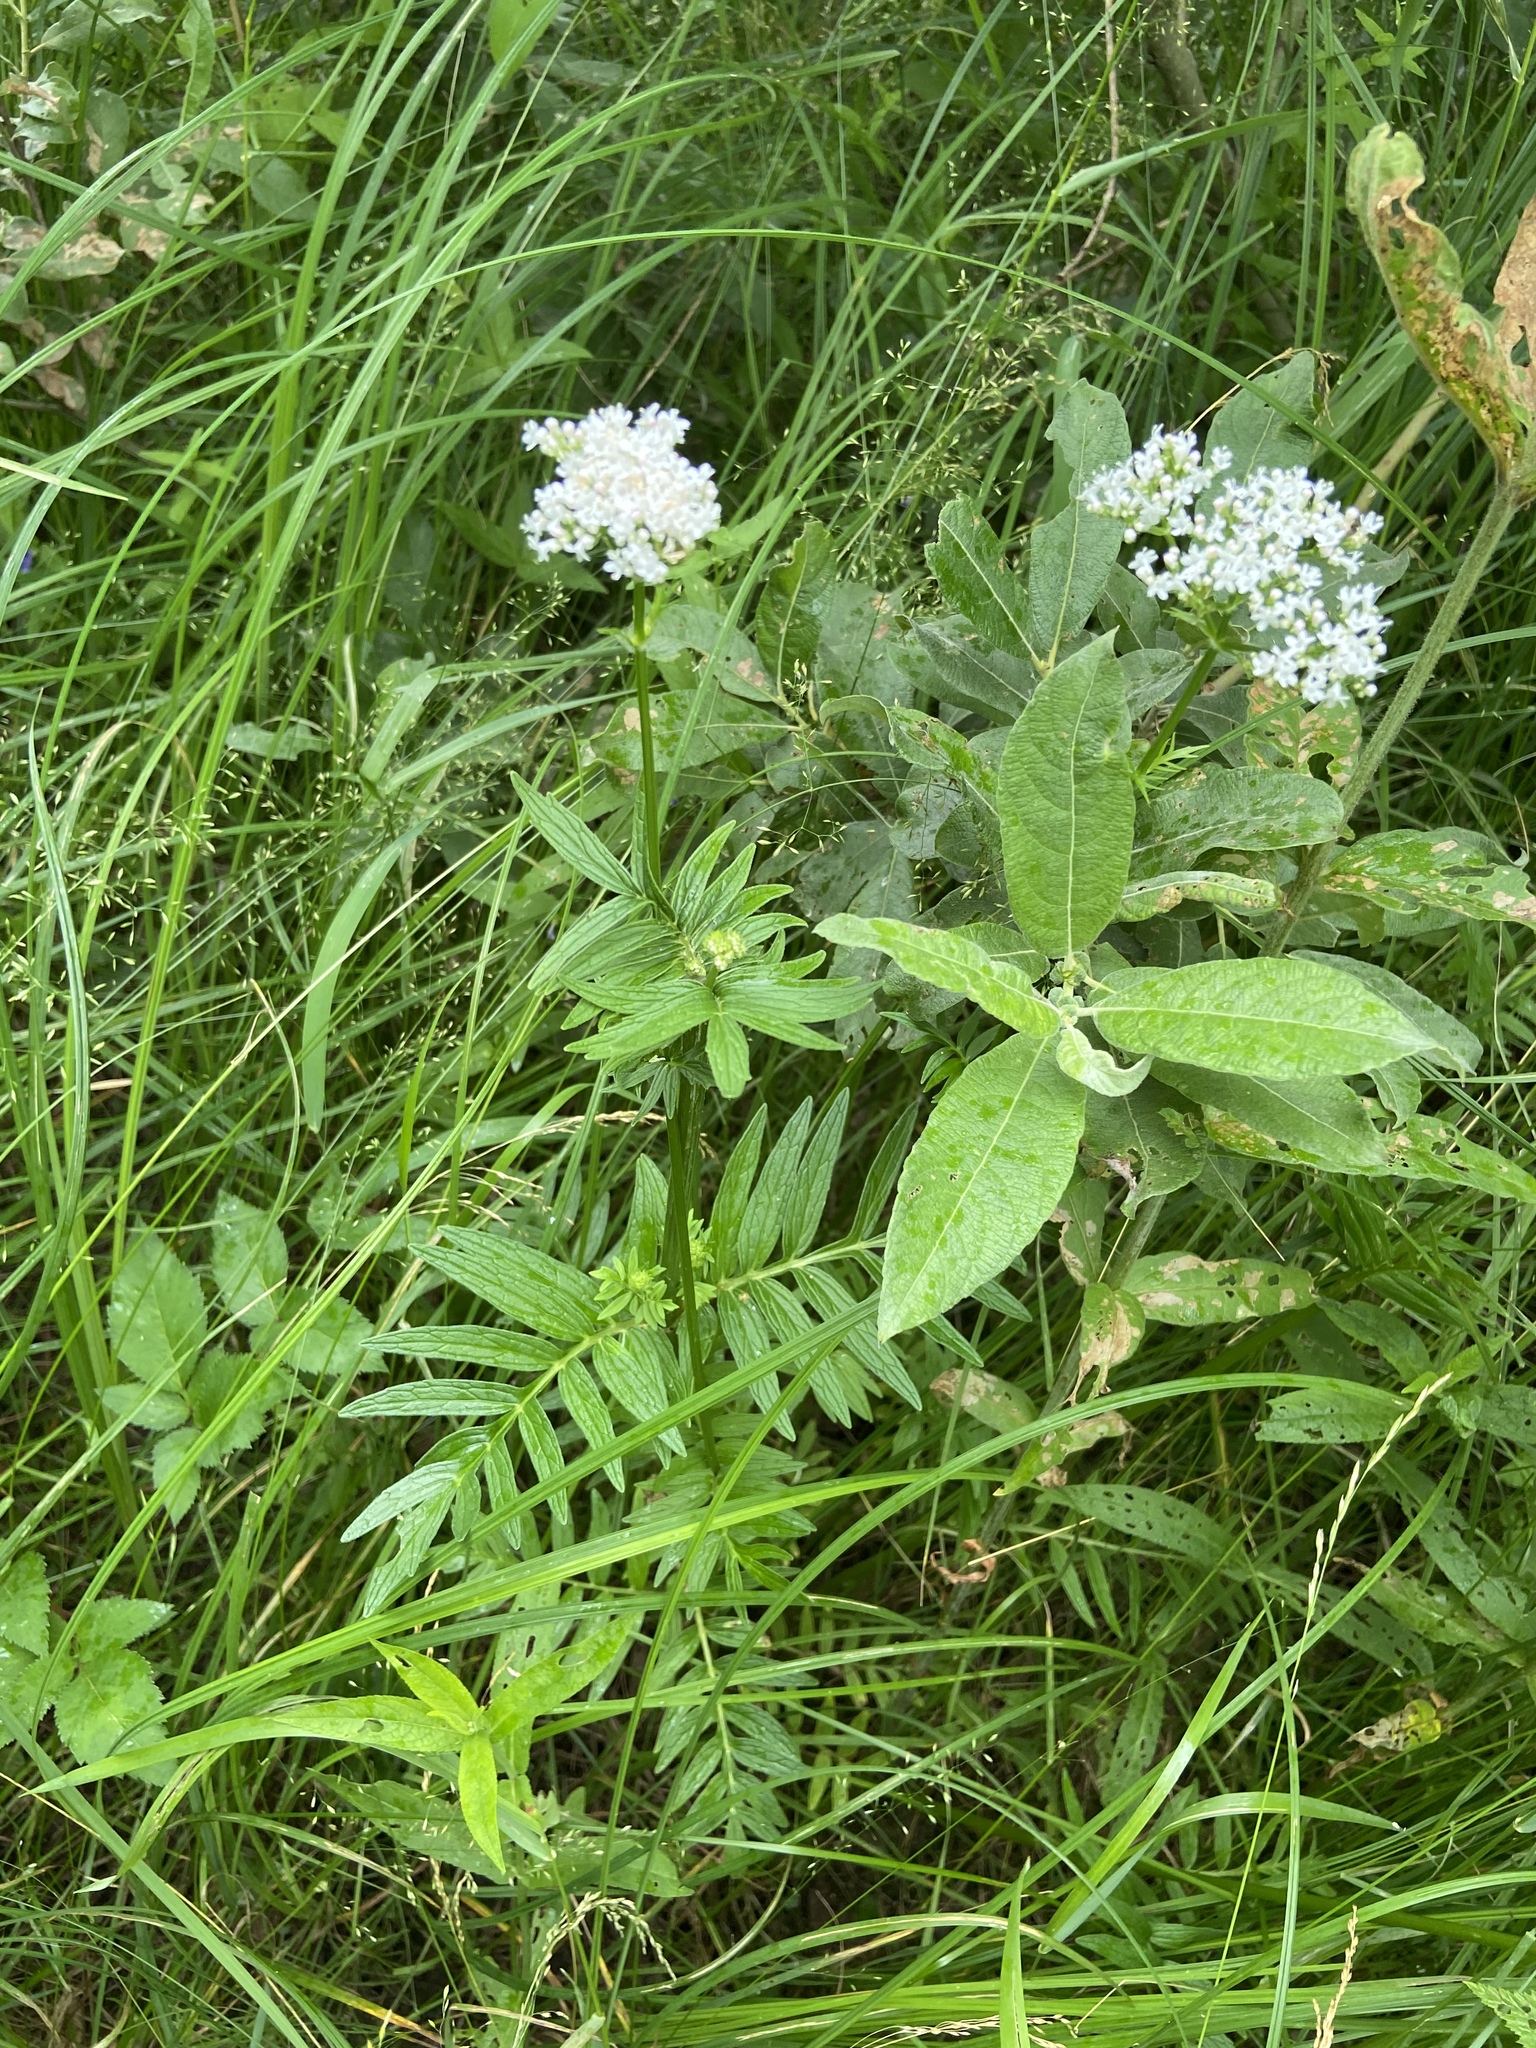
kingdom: Plantae
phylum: Tracheophyta
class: Magnoliopsida
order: Dipsacales
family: Caprifoliaceae
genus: Valeriana
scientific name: Valeriana officinalis
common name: Common valerian
